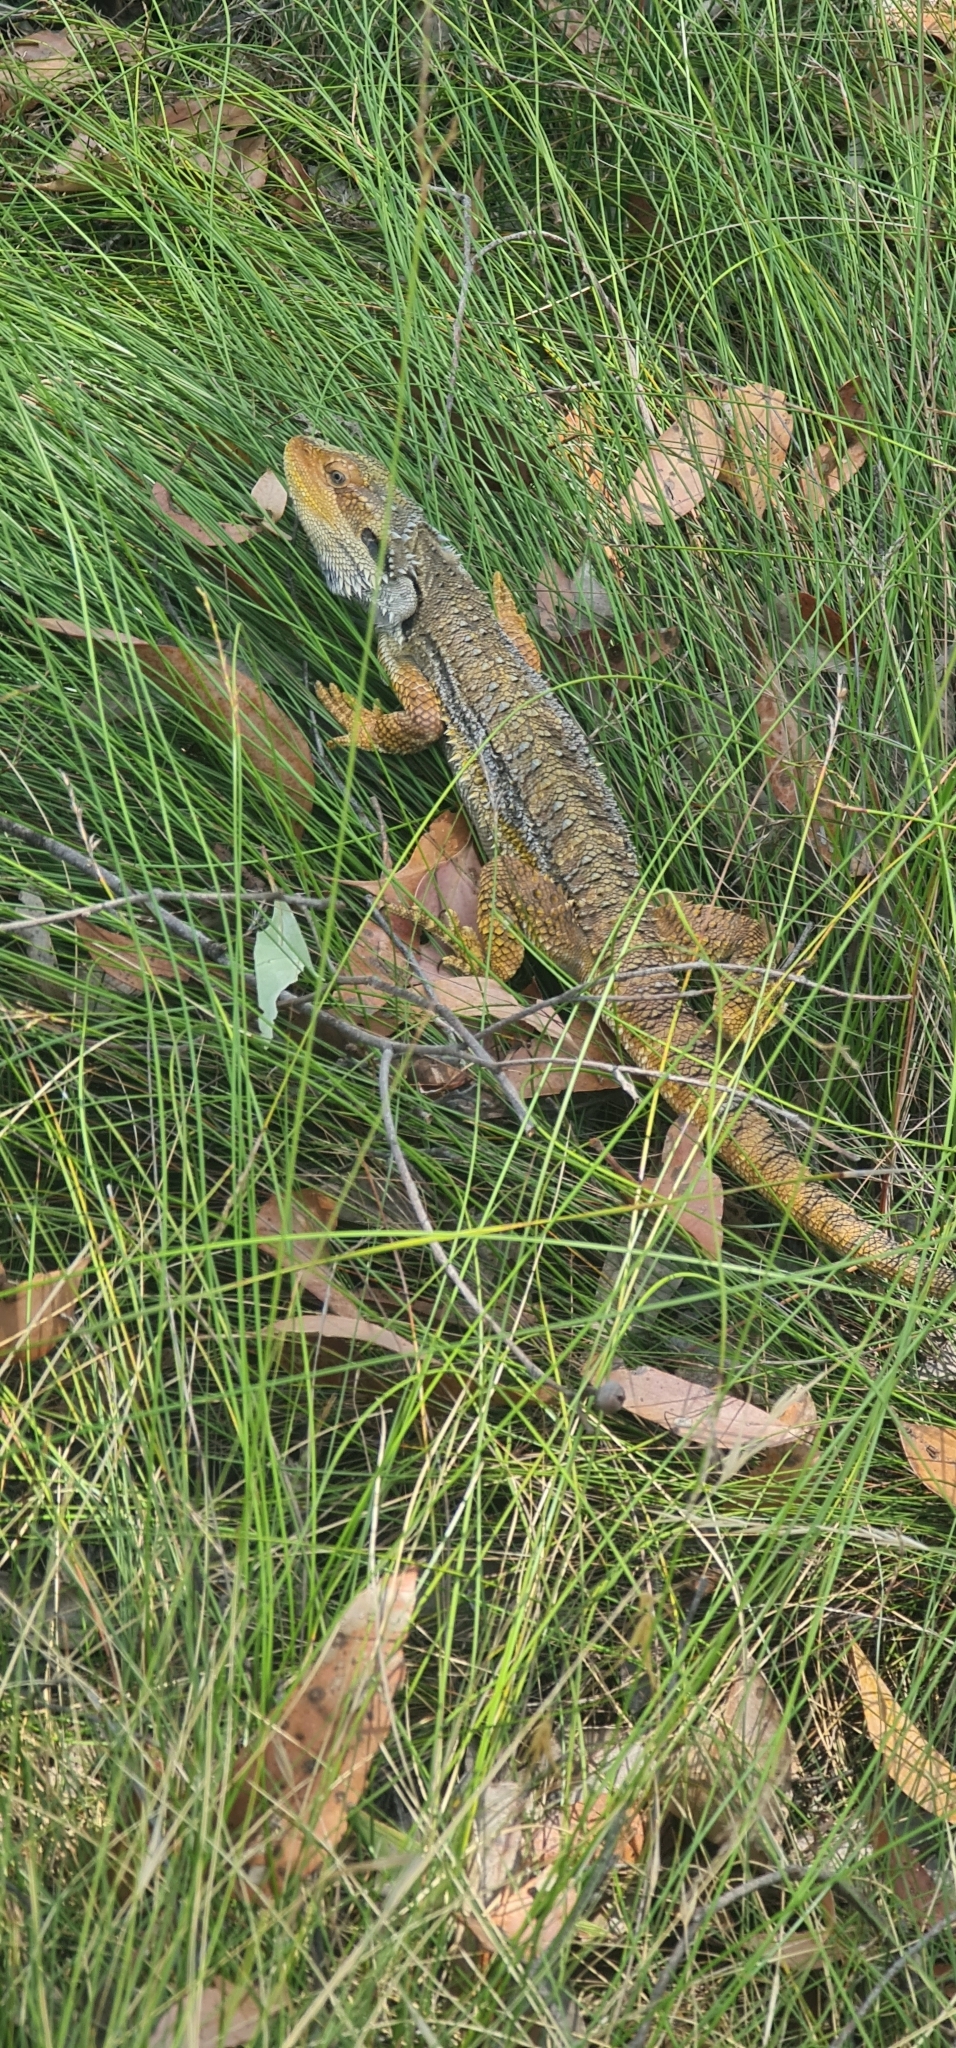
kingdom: Animalia
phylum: Chordata
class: Squamata
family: Agamidae
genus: Pogona
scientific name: Pogona barbata
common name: Bearded dragon
